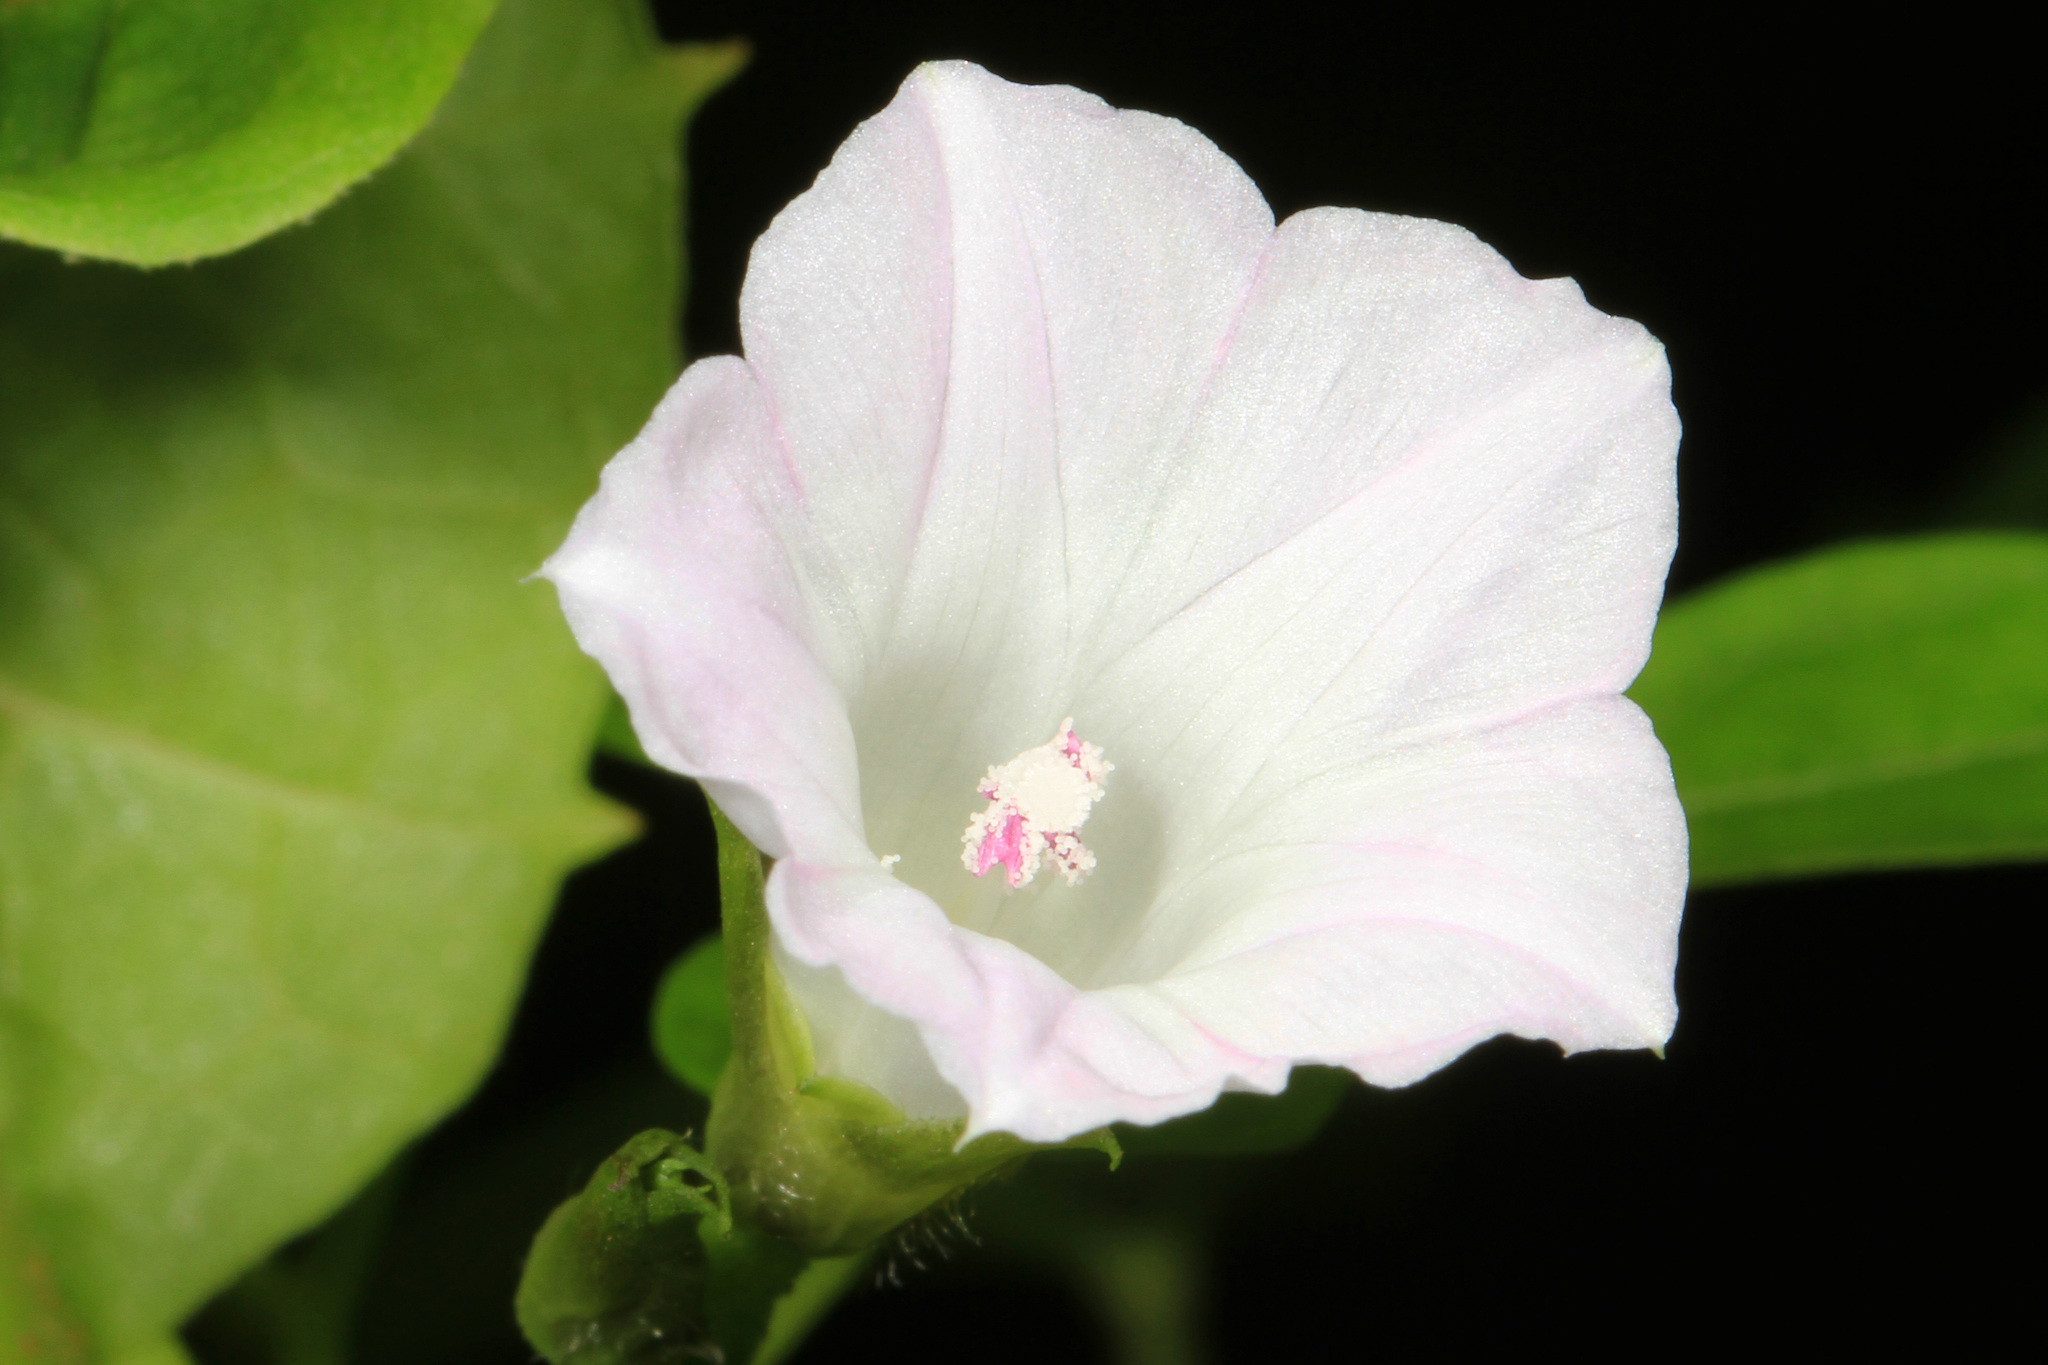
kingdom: Plantae
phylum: Tracheophyta
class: Magnoliopsida
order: Solanales
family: Convolvulaceae
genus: Ipomoea
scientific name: Ipomoea lacunosa
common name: White morning-glory
